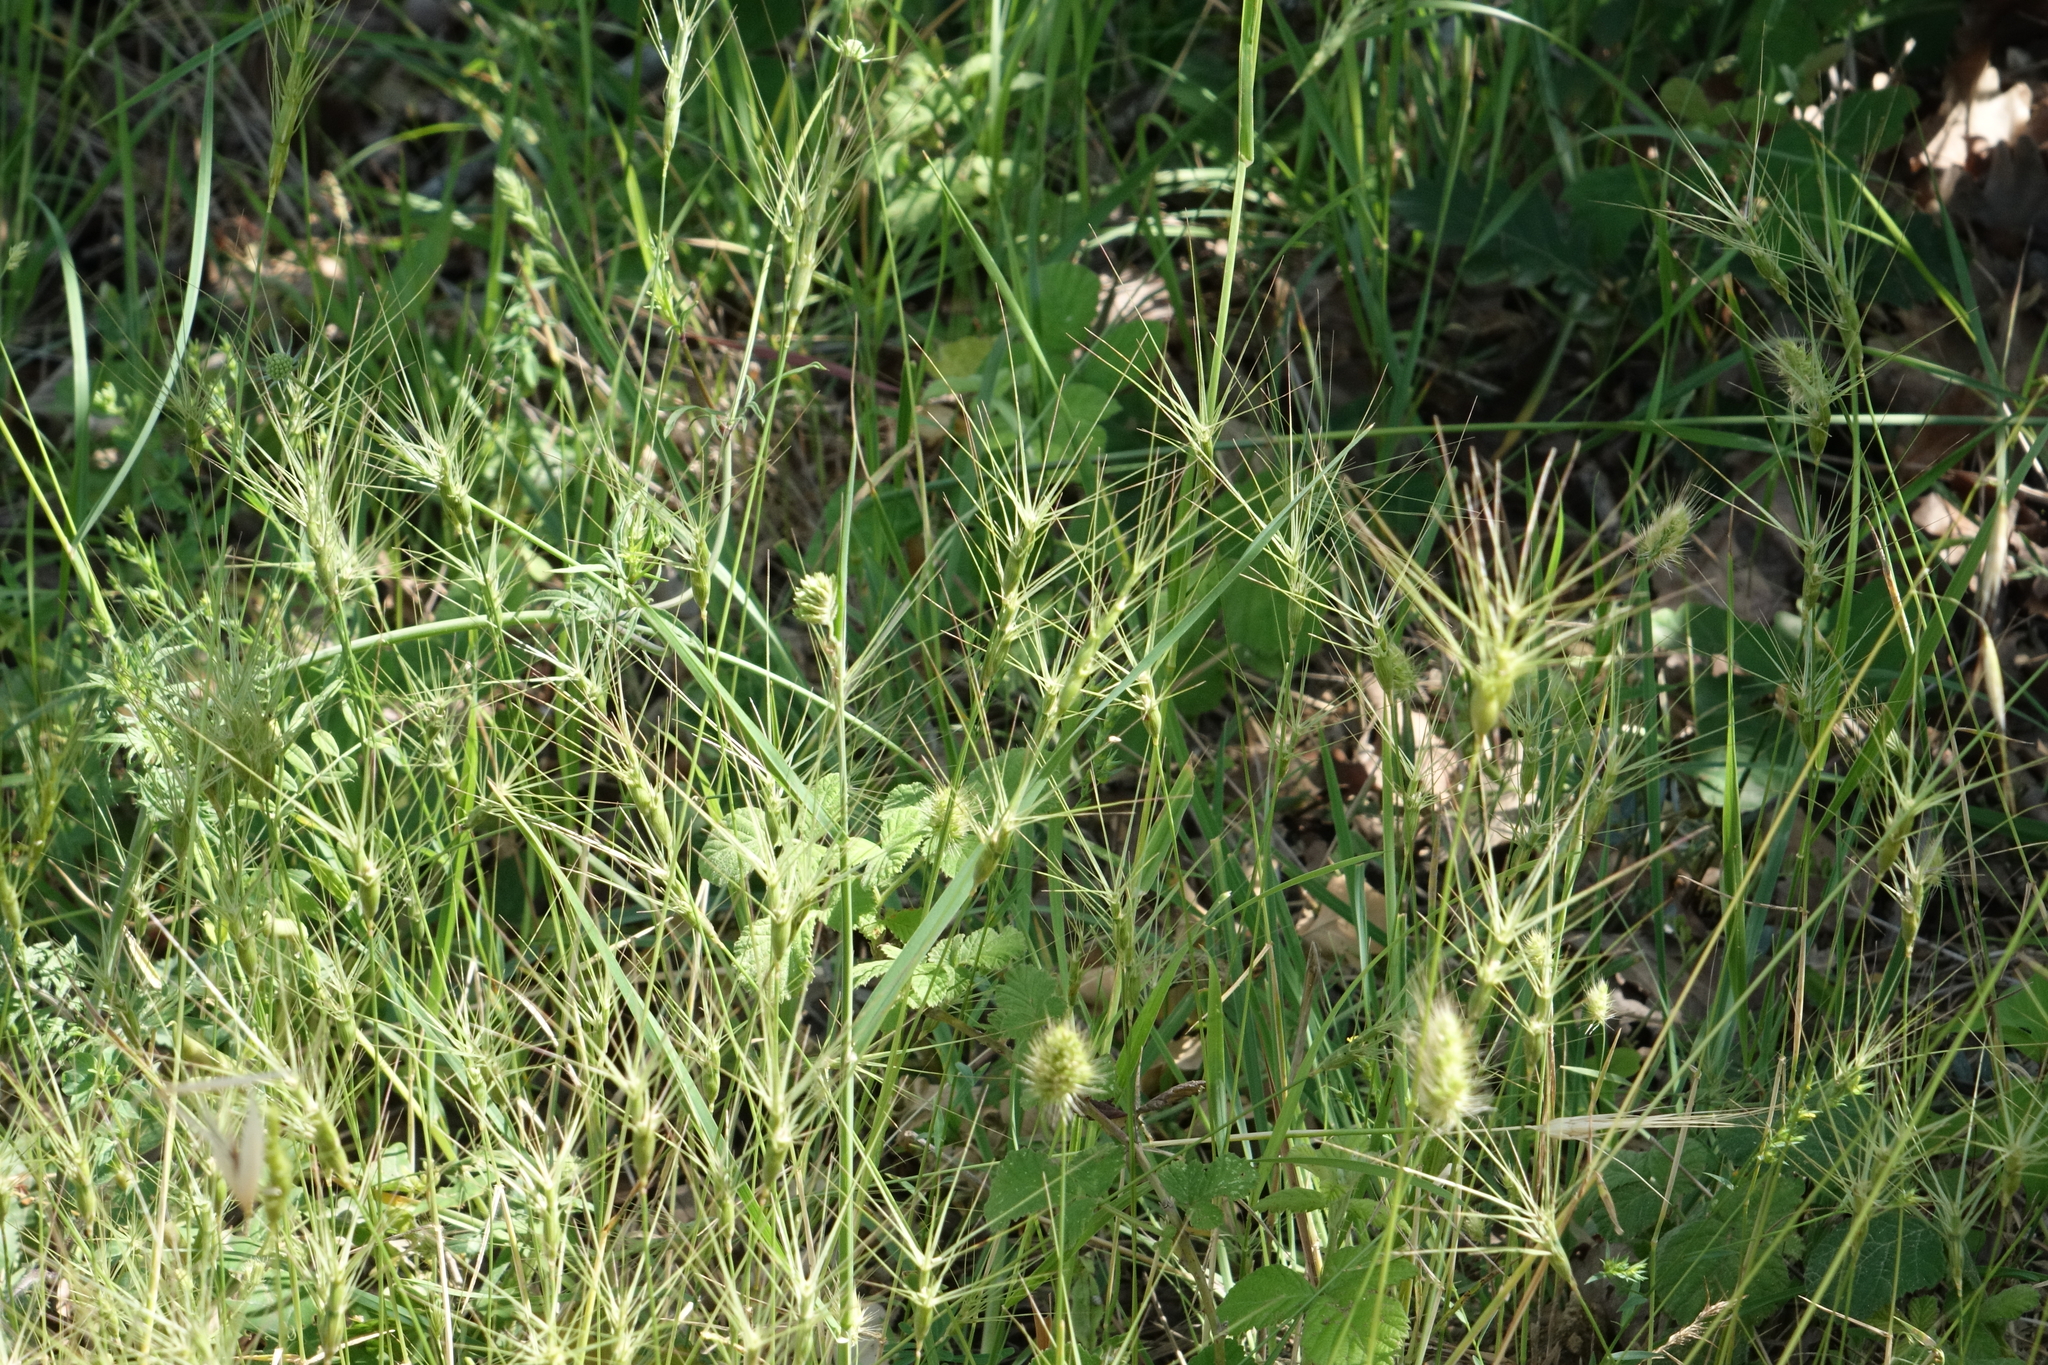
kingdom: Plantae
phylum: Tracheophyta
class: Liliopsida
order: Poales
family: Poaceae
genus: Aegilops
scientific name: Aegilops biuncialis
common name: Mediterranean aegilops
